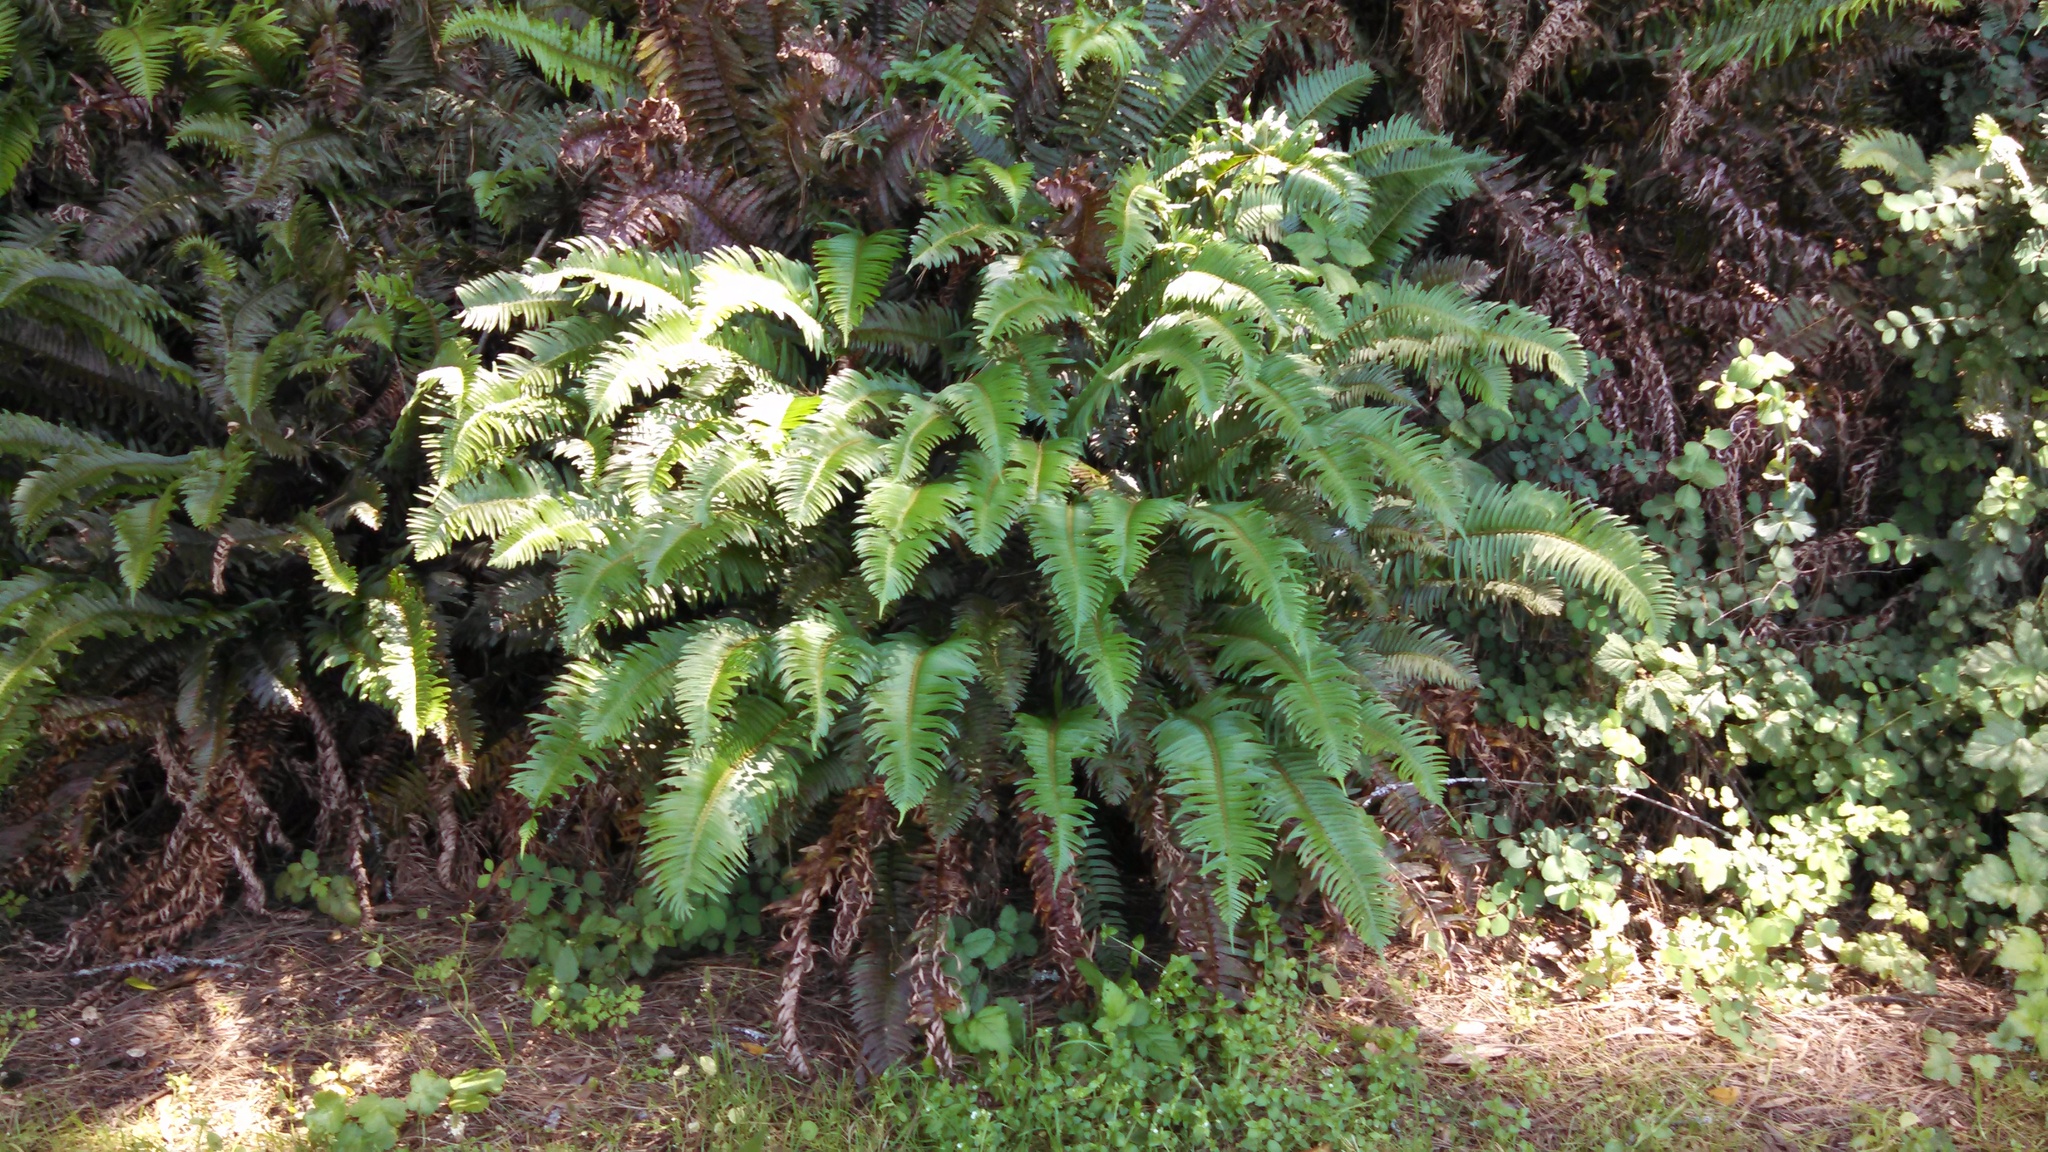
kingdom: Plantae
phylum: Tracheophyta
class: Polypodiopsida
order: Polypodiales
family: Dryopteridaceae
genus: Polystichum
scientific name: Polystichum munitum
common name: Western sword-fern
